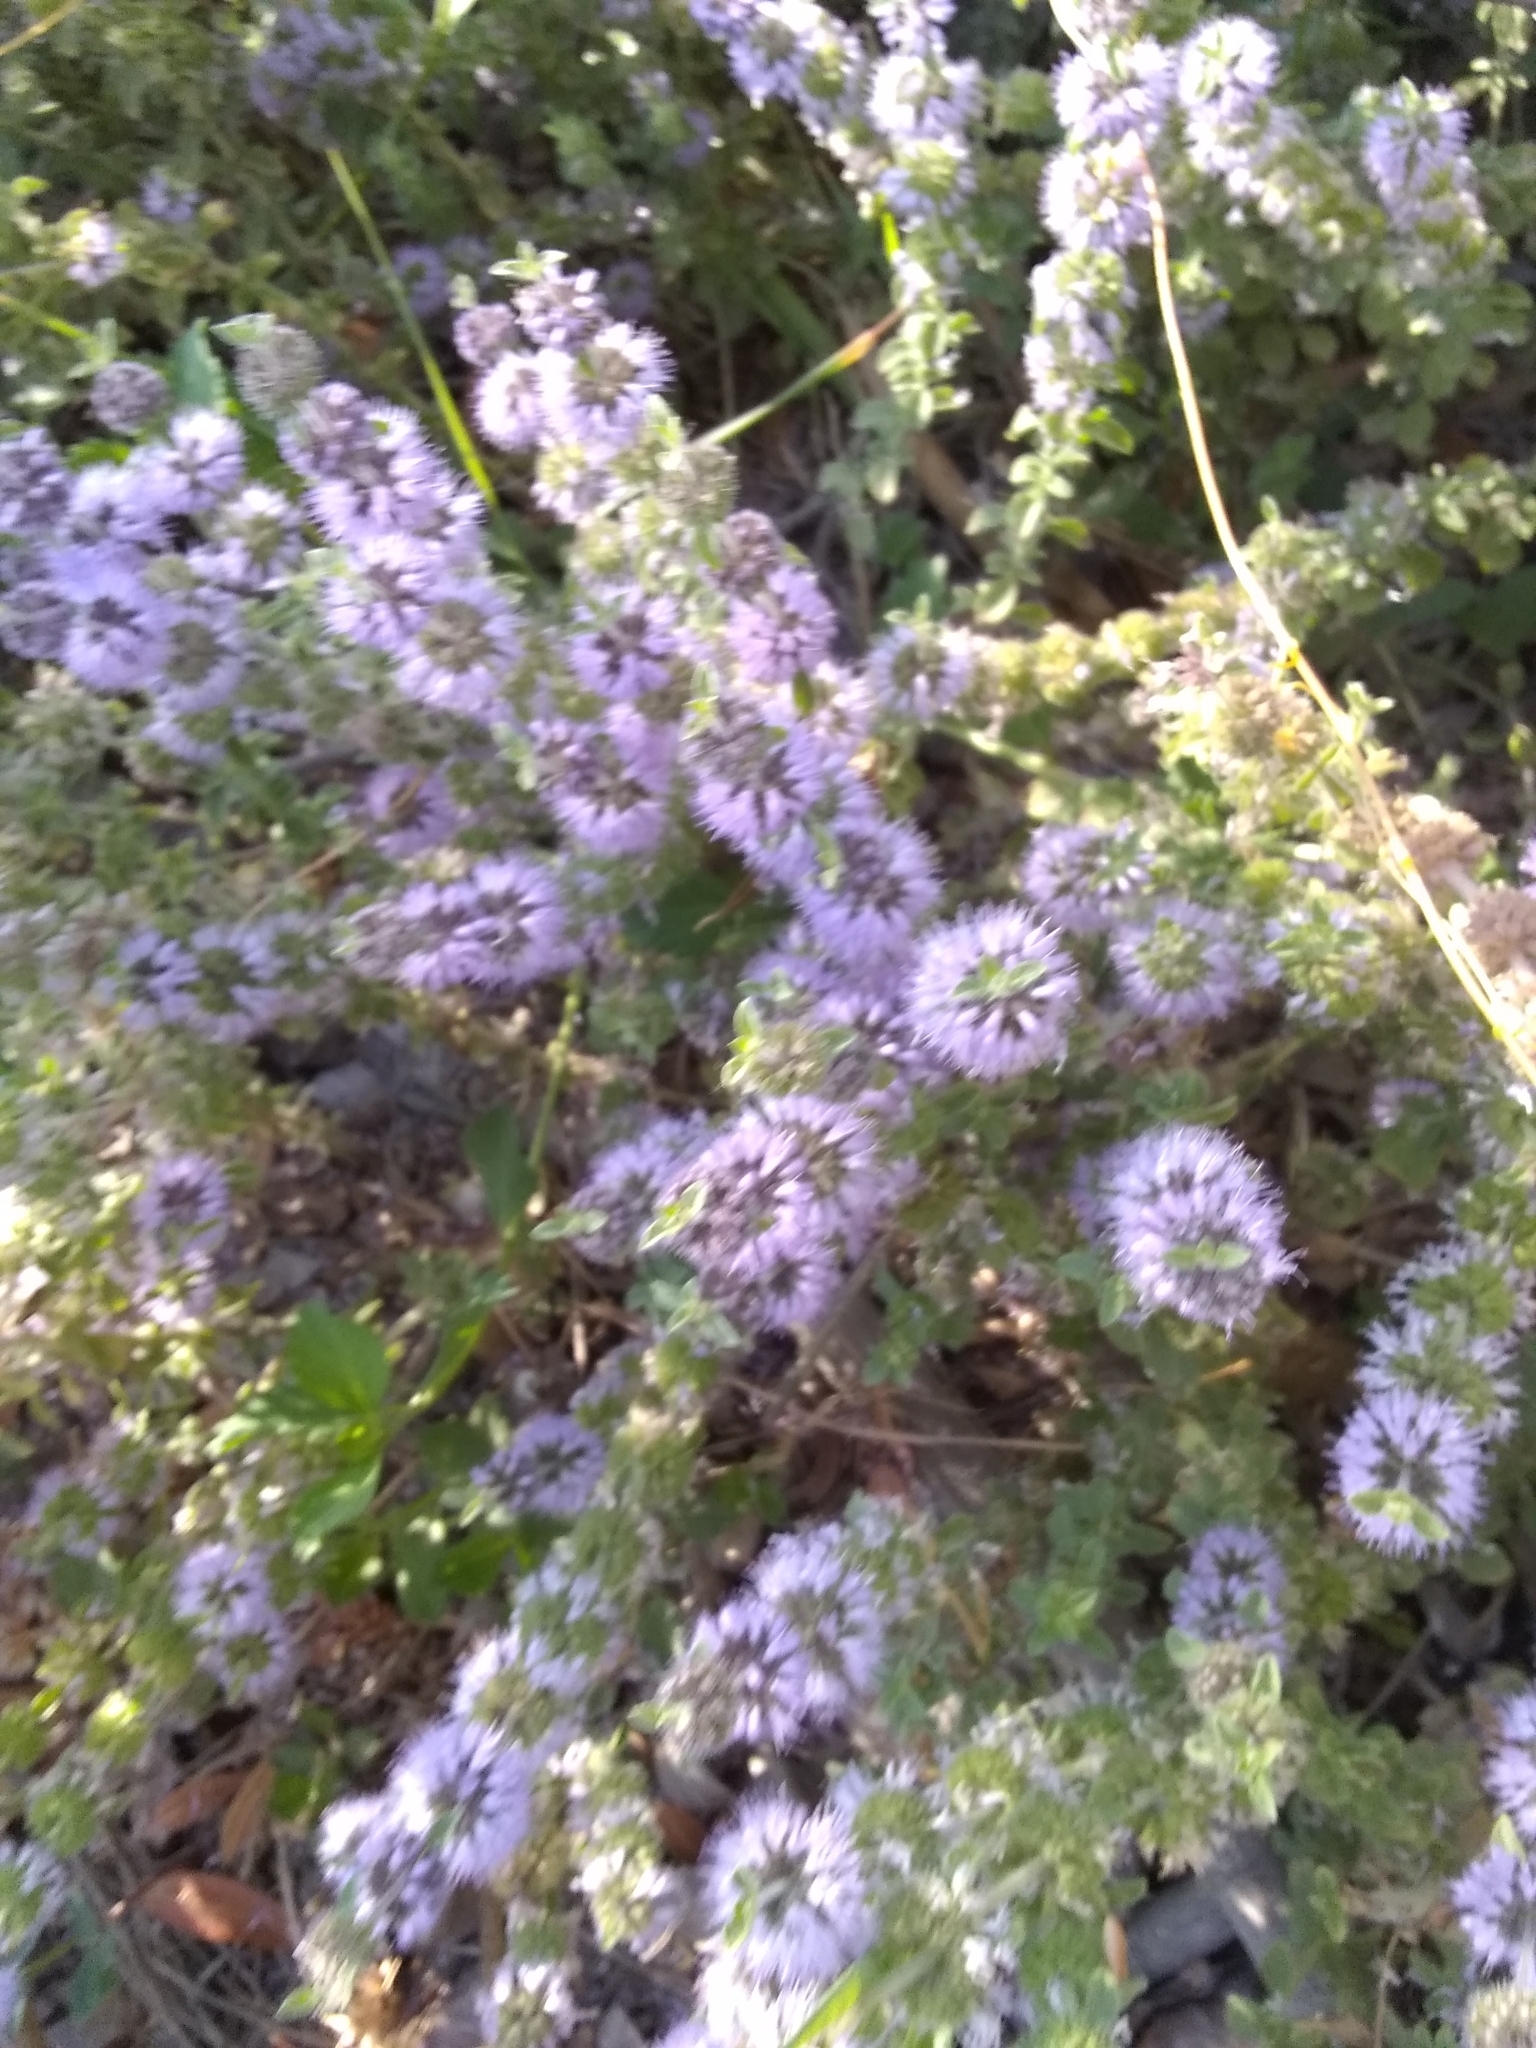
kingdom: Plantae
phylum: Tracheophyta
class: Magnoliopsida
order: Lamiales
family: Lamiaceae
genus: Mentha
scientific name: Mentha pulegium
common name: Pennyroyal
